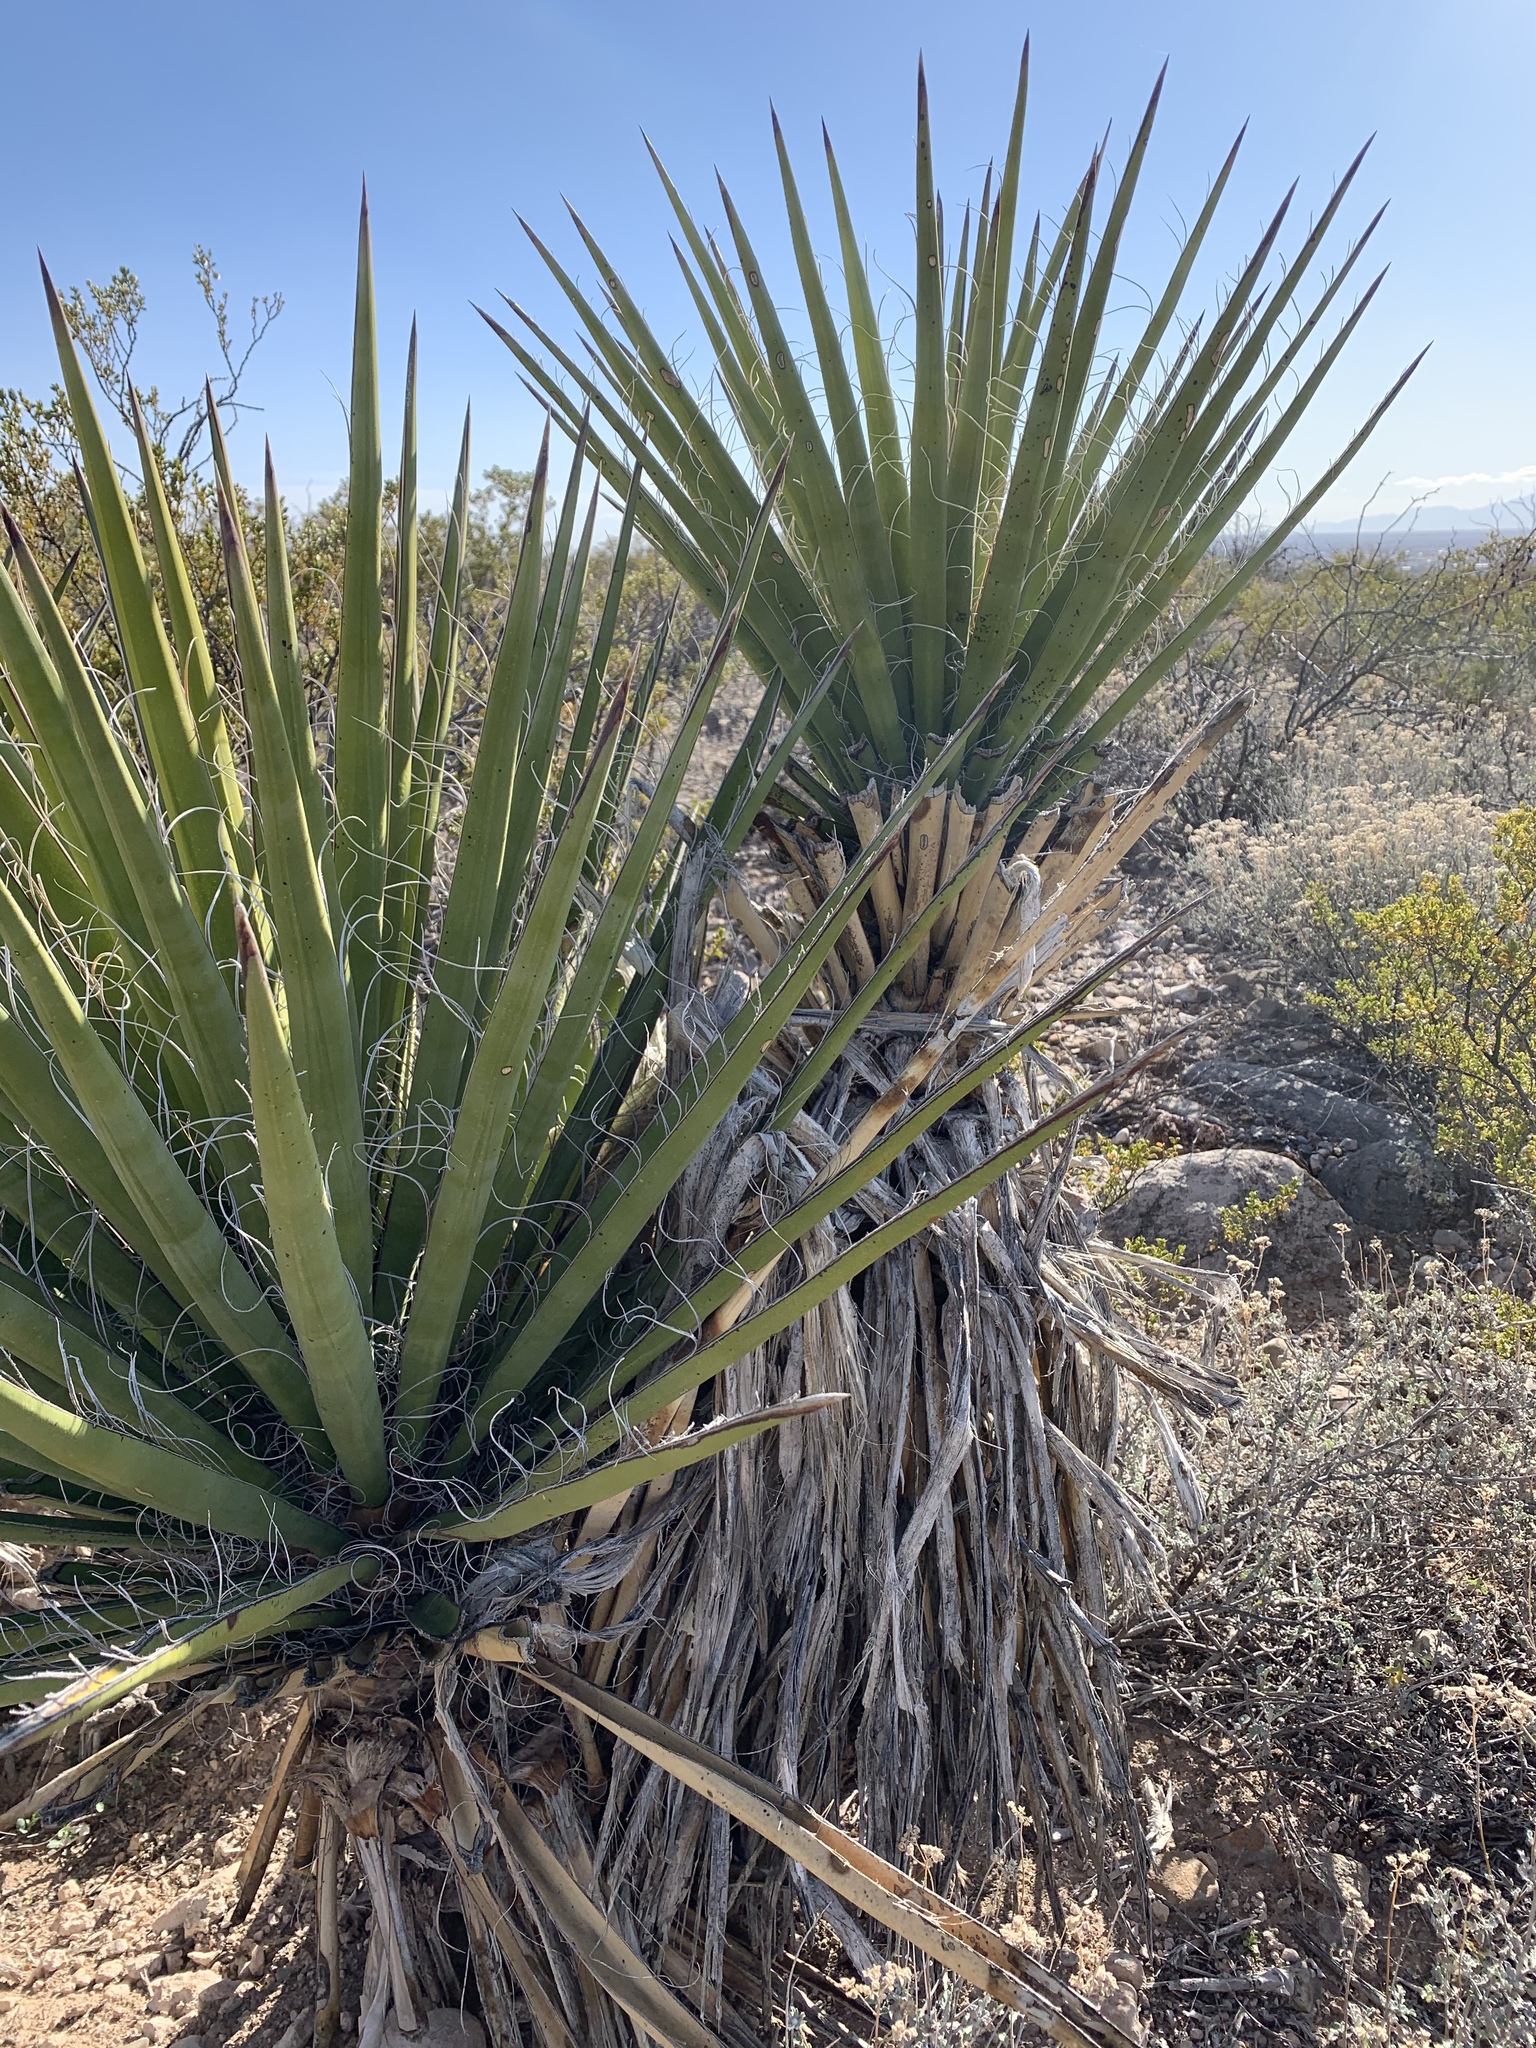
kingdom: Plantae
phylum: Tracheophyta
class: Liliopsida
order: Asparagales
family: Asparagaceae
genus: Yucca
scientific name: Yucca treculiana
